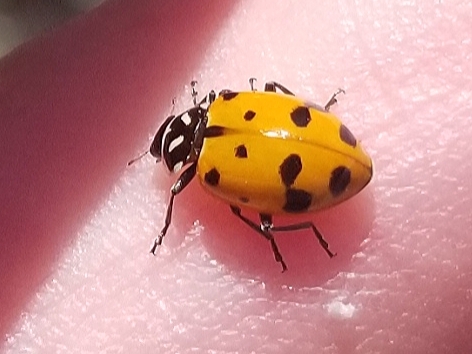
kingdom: Animalia
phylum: Arthropoda
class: Insecta
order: Coleoptera
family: Coccinellidae
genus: Hippodamia
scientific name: Hippodamia convergens
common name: Convergent lady beetle
